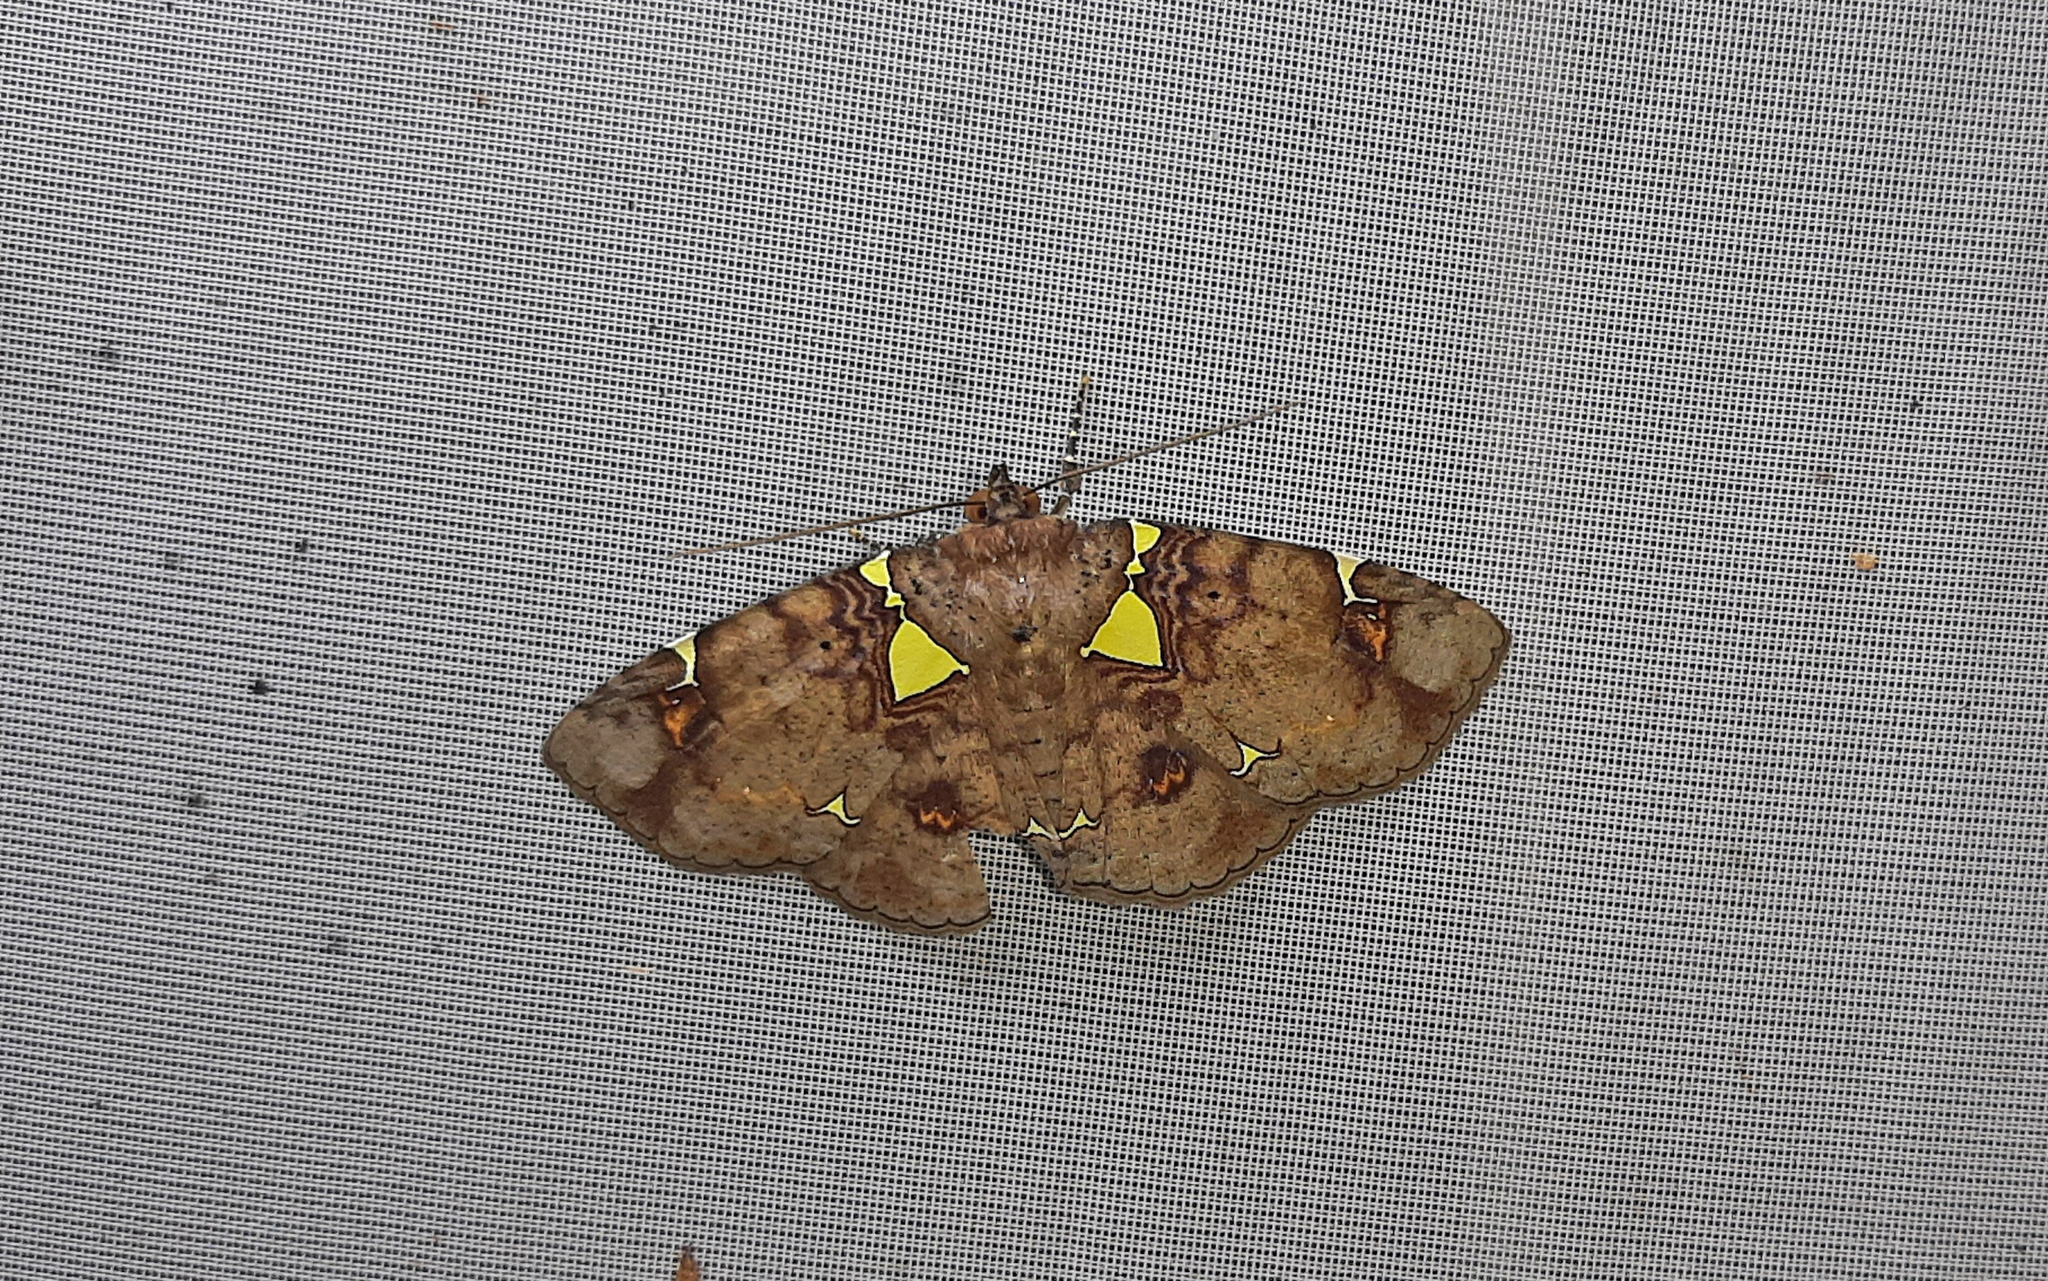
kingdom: Animalia
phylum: Arthropoda
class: Insecta
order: Lepidoptera
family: Erebidae
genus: Antiblemma
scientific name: Antiblemma albipunctata
